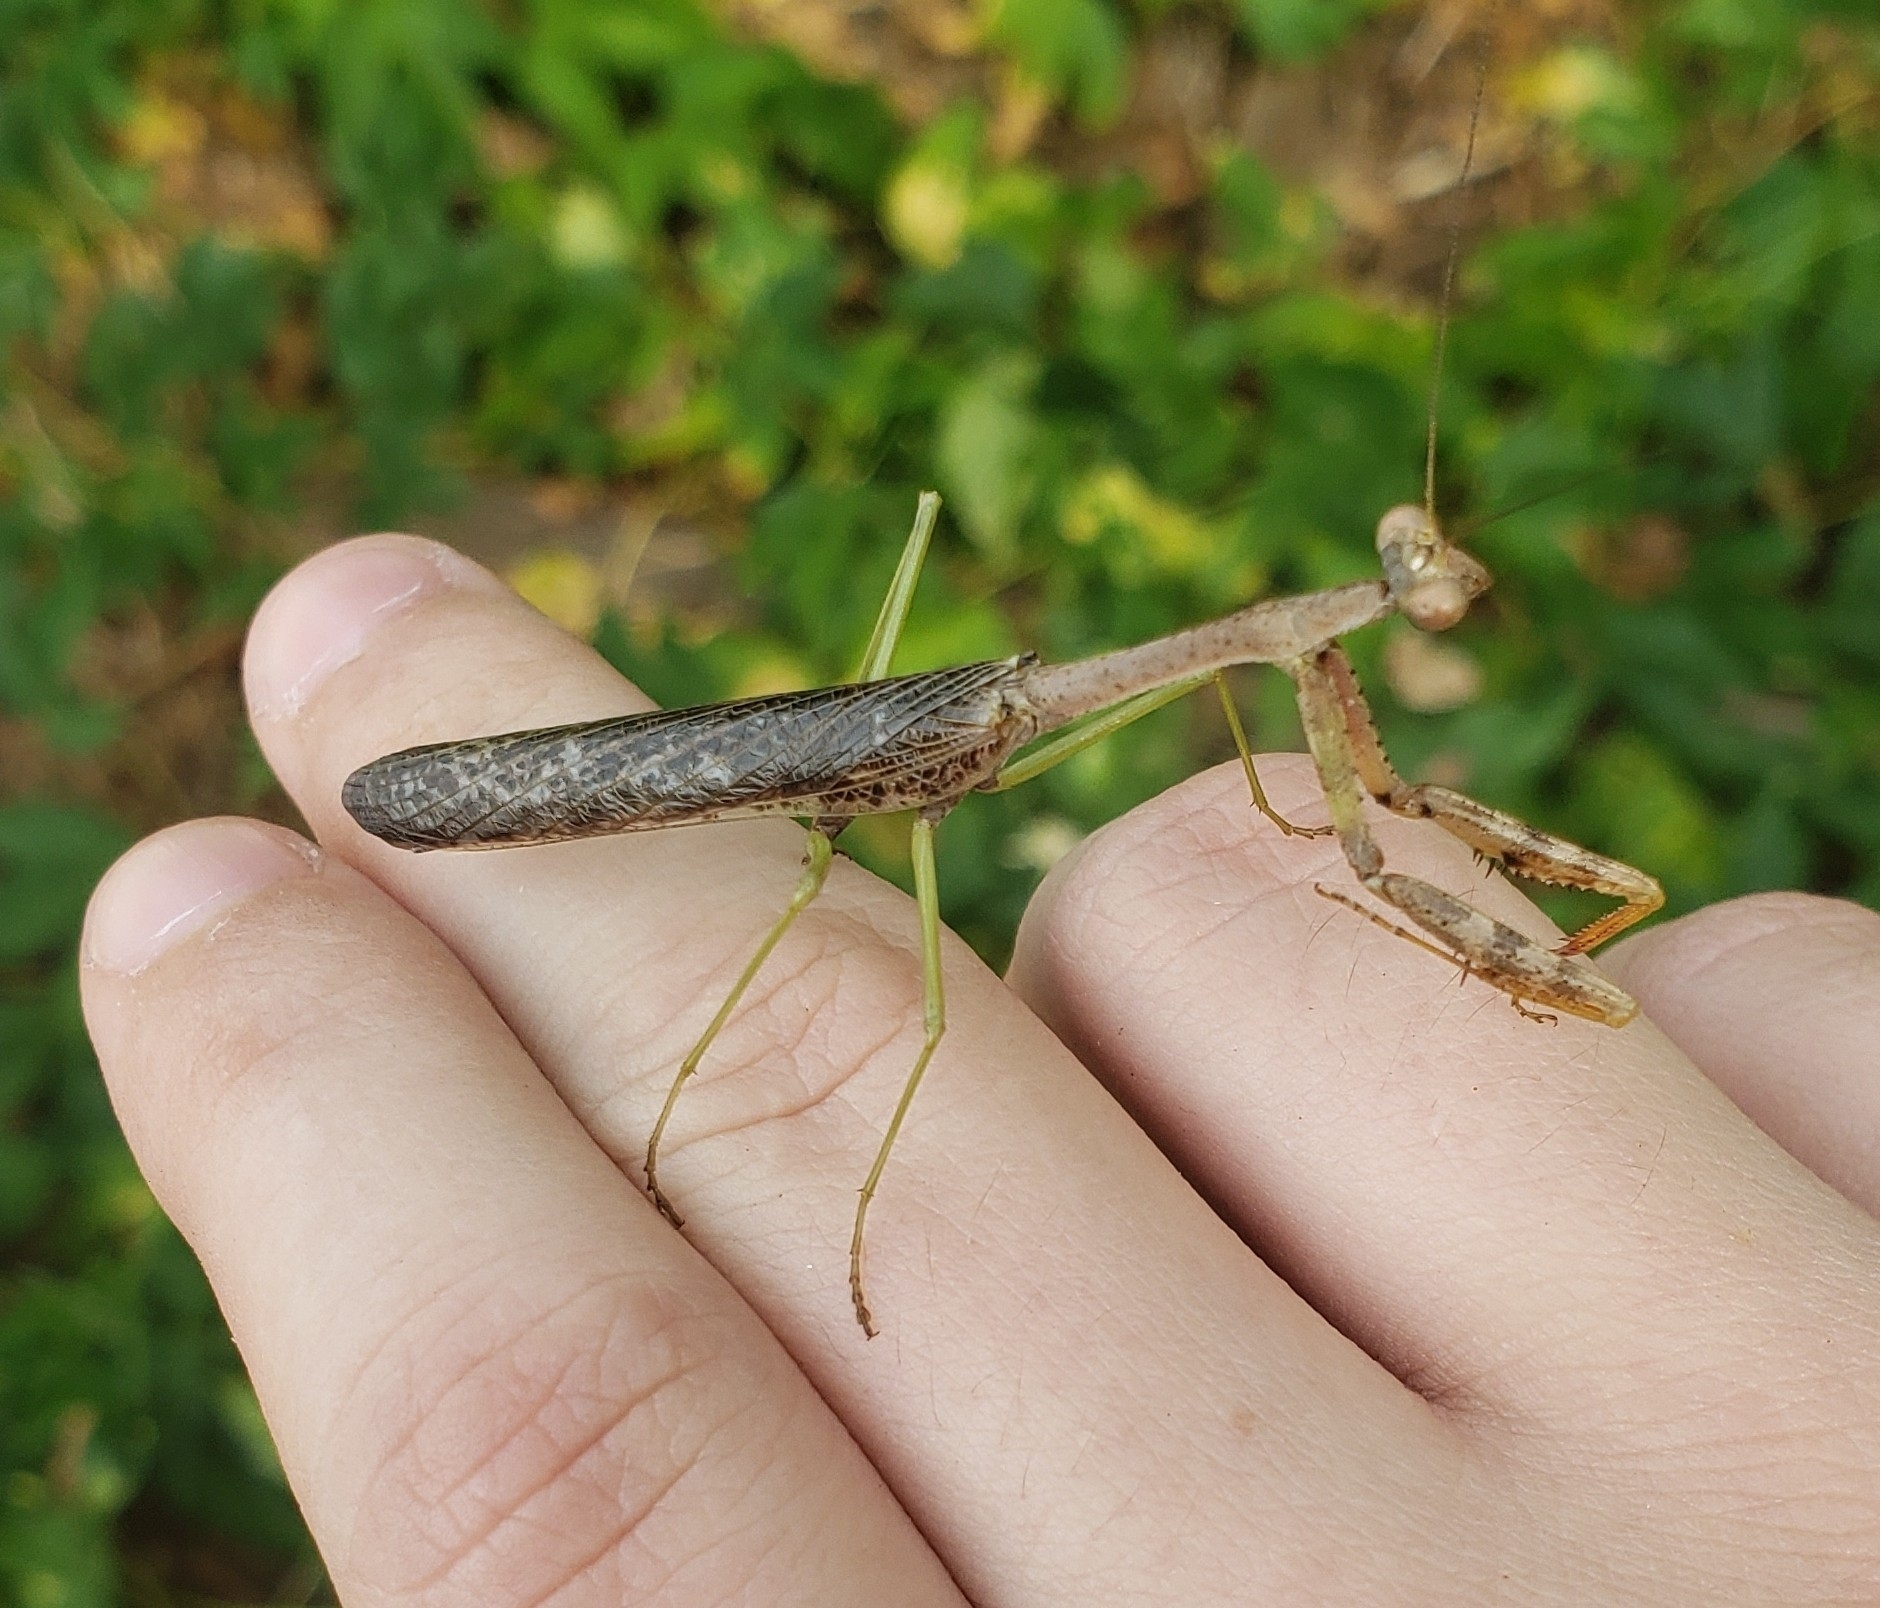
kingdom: Animalia
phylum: Arthropoda
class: Insecta
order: Mantodea
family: Mantidae
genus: Stagmomantis
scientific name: Stagmomantis carolina
